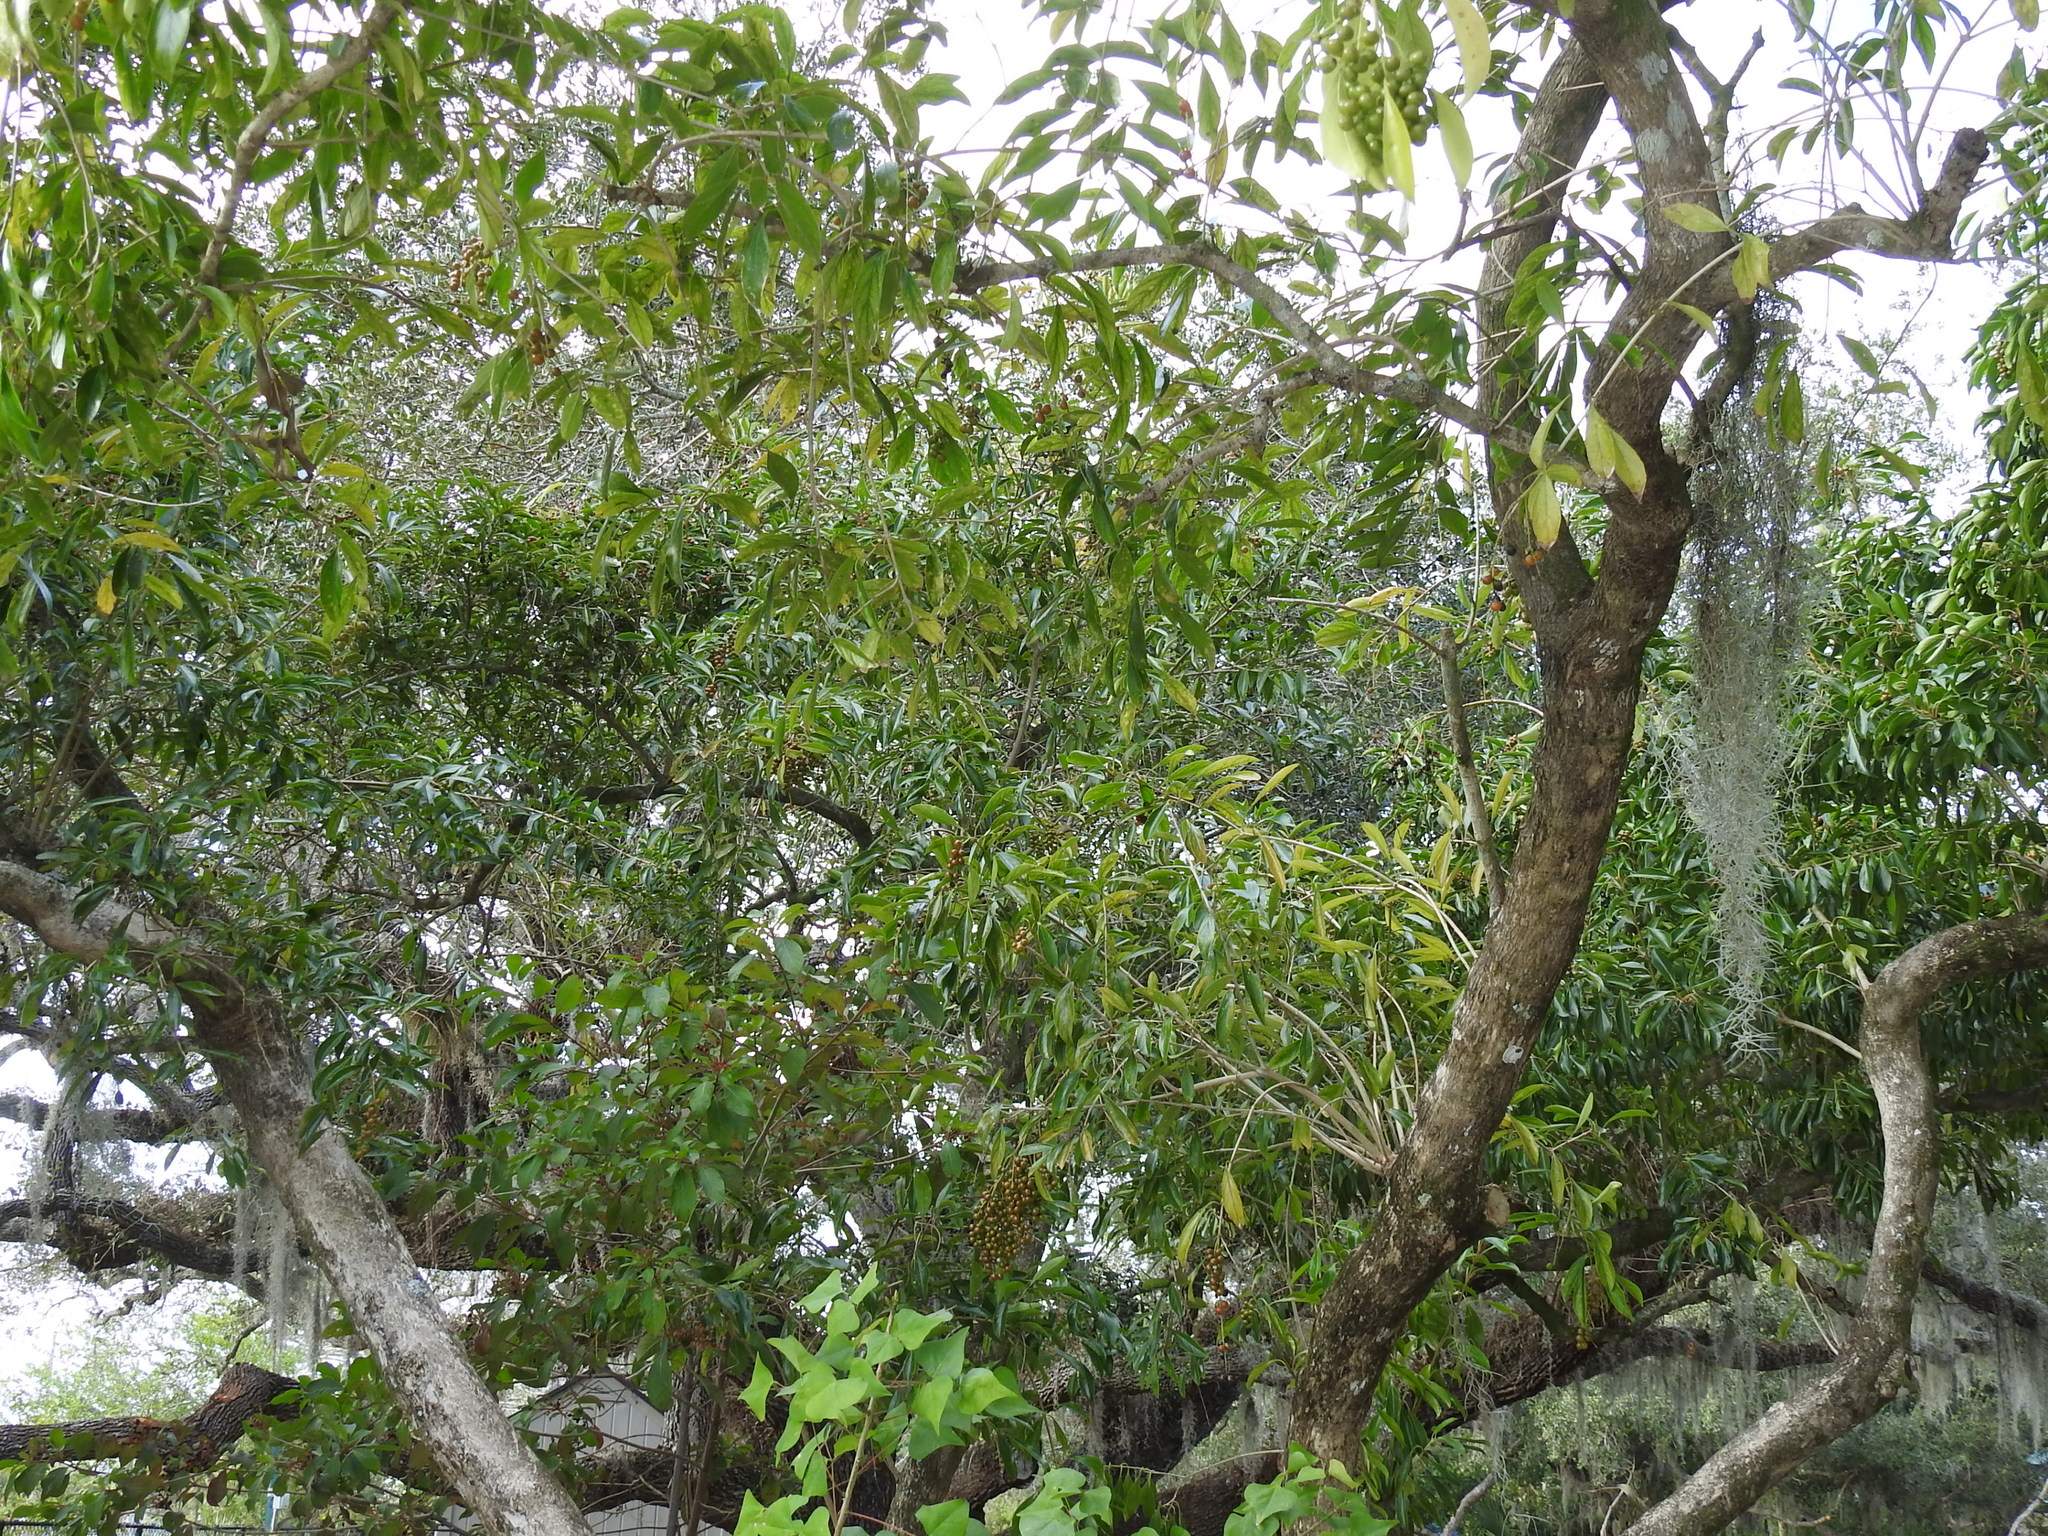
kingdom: Plantae
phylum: Tracheophyta
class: Magnoliopsida
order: Lamiales
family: Verbenaceae
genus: Citharexylum
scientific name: Citharexylum spinosum
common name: Fiddlewood
